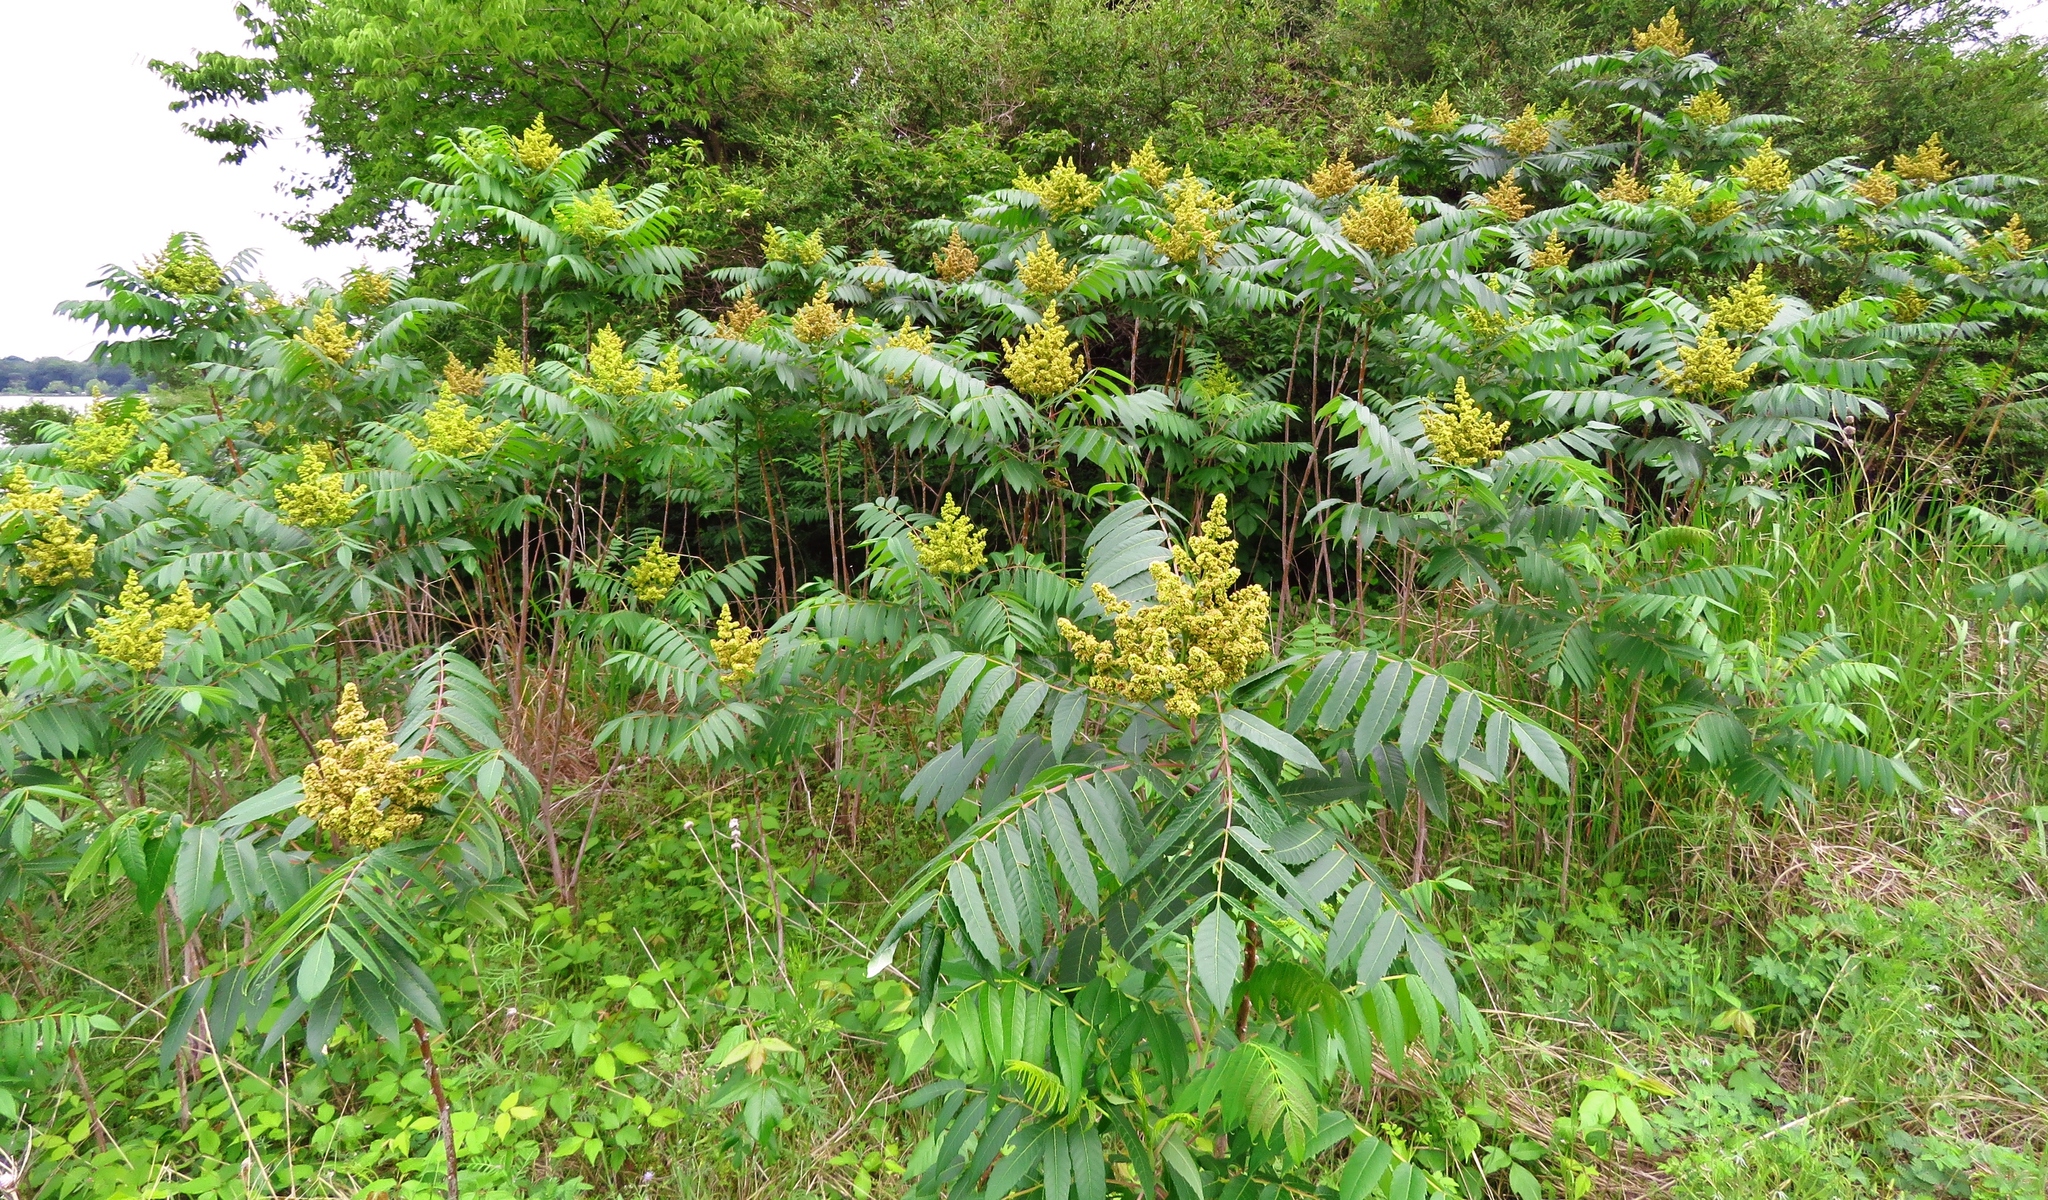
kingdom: Plantae
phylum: Tracheophyta
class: Magnoliopsida
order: Sapindales
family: Anacardiaceae
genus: Rhus
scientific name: Rhus glabra
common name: Scarlet sumac
